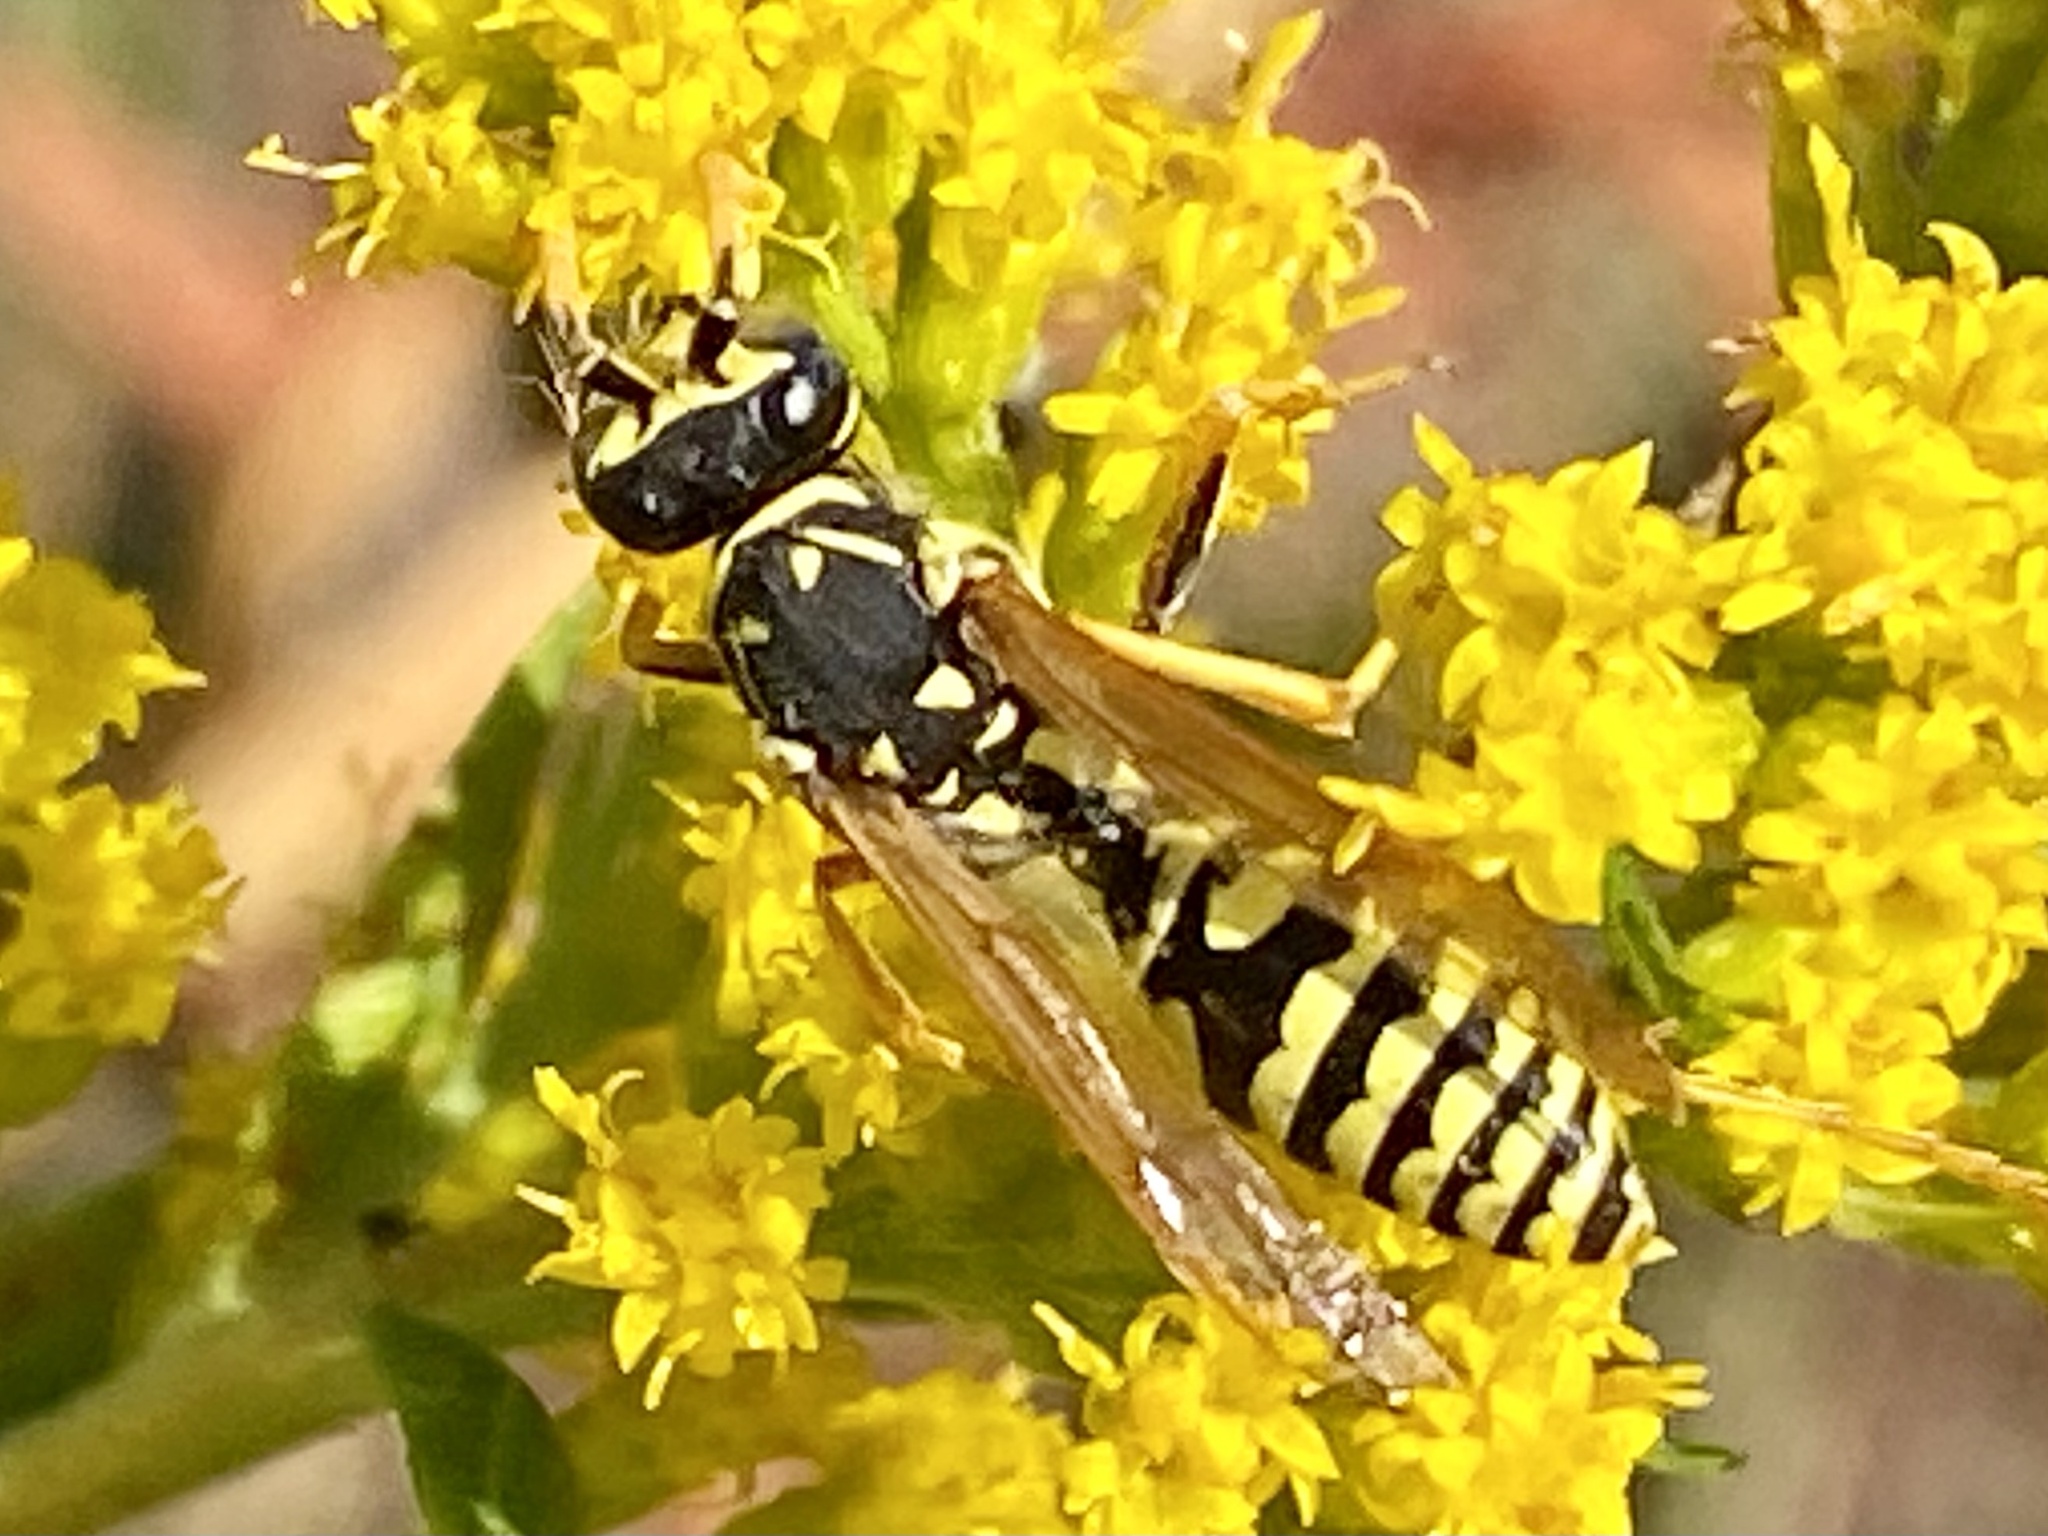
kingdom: Animalia
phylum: Arthropoda
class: Insecta
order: Hymenoptera
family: Eumenidae
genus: Polistes
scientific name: Polistes dominula
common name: Paper wasp
